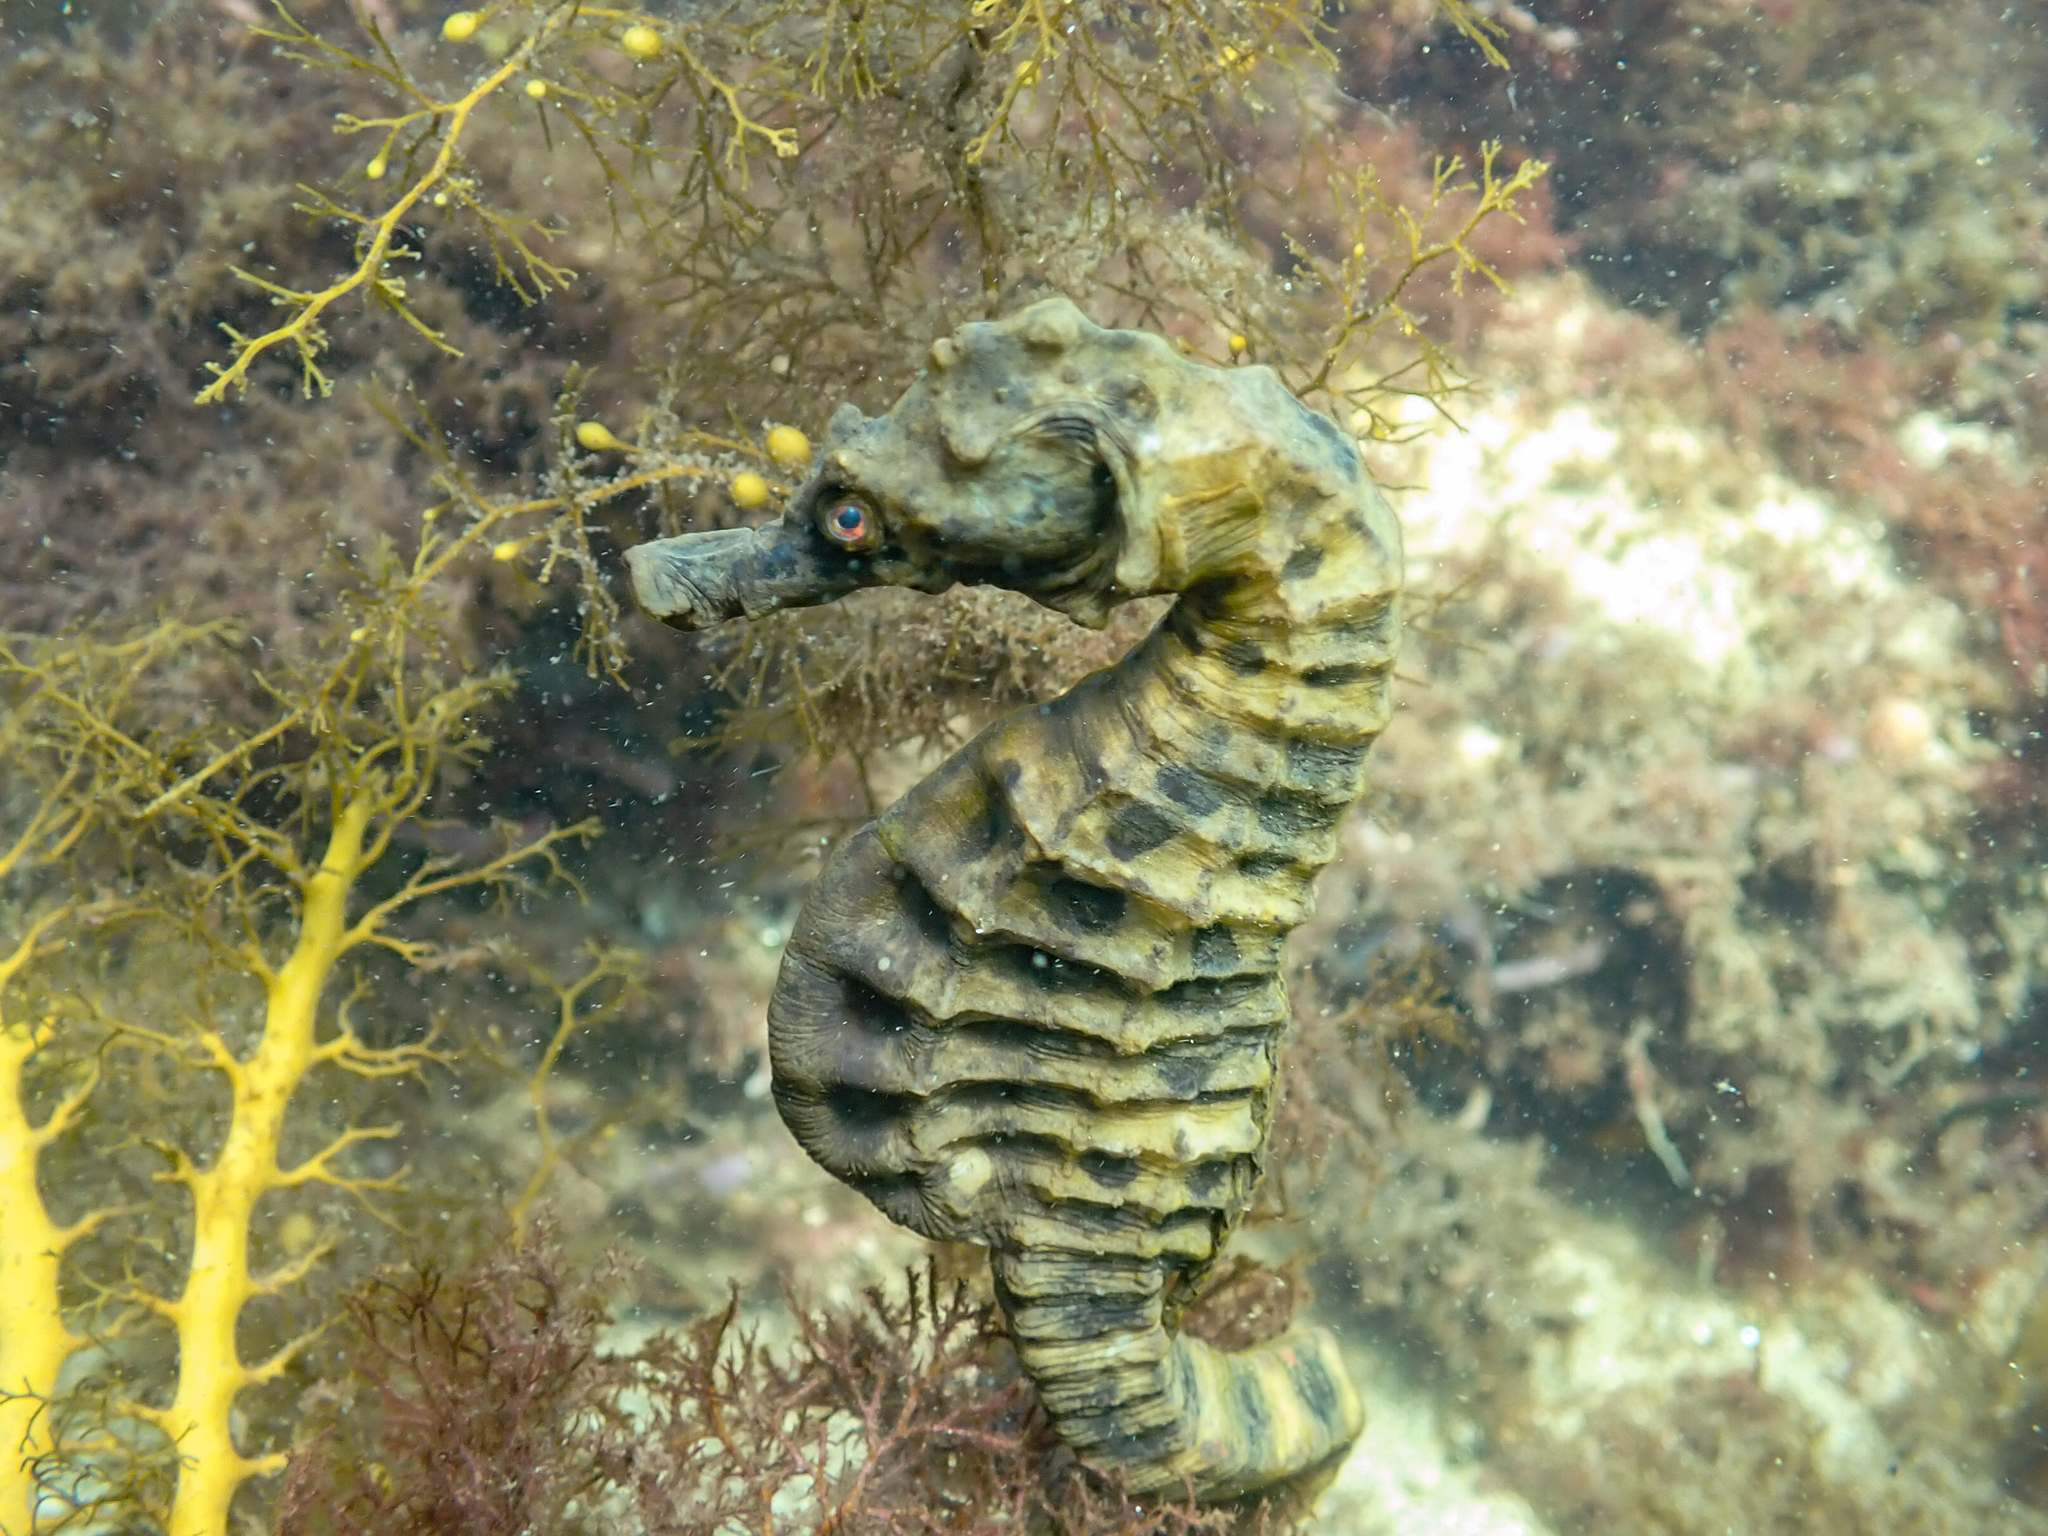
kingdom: Animalia
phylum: Chordata
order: Syngnathiformes
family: Syngnathidae
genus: Hippocampus
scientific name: Hippocampus abdominalis
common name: Big-belly seahorse
